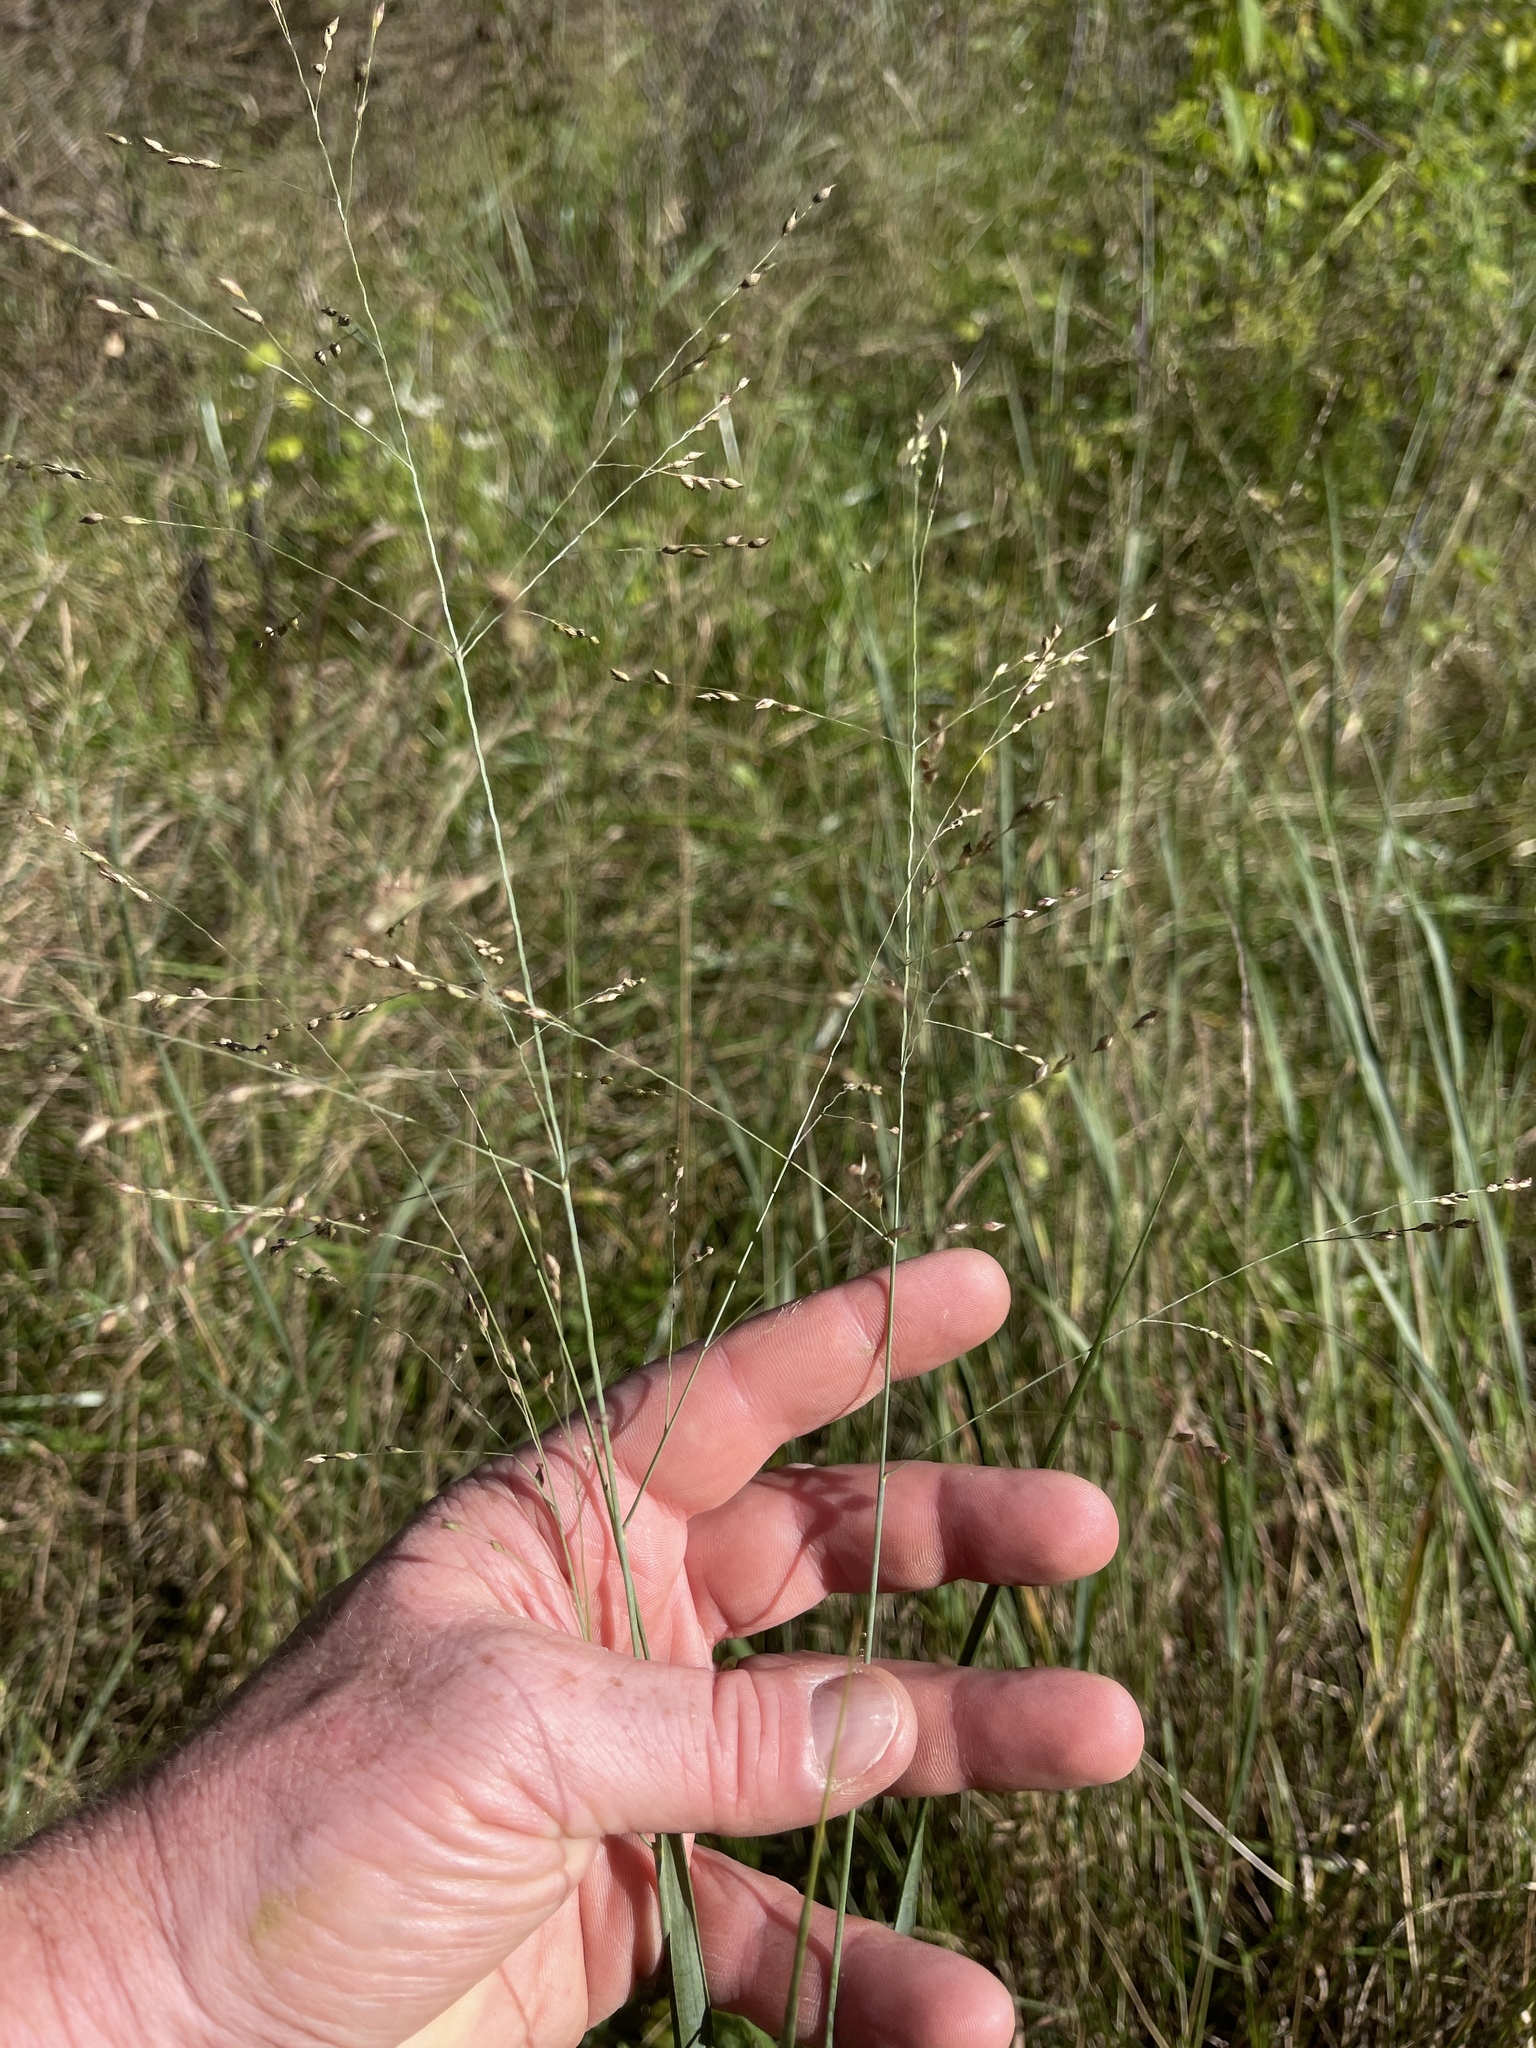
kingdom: Plantae
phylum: Tracheophyta
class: Liliopsida
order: Poales
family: Poaceae
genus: Panicum
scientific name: Panicum virgatum
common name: Switchgrass
